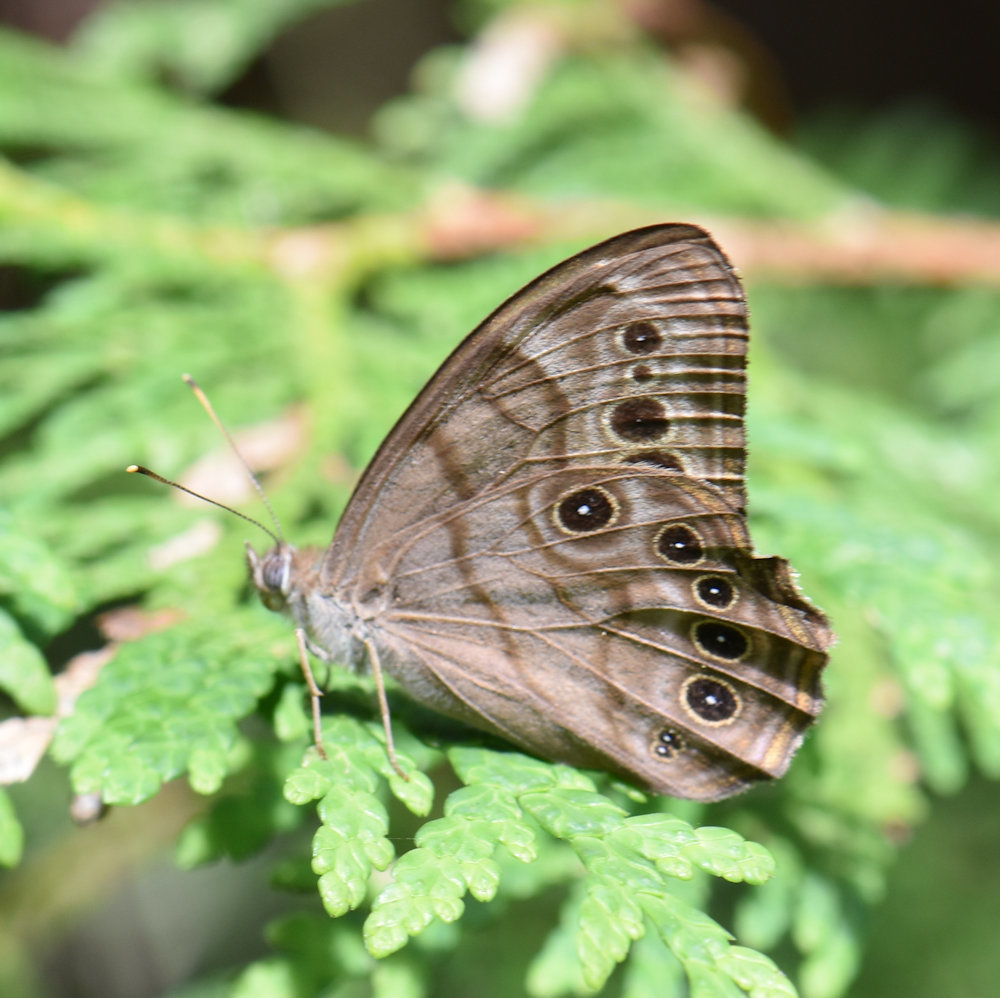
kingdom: Animalia
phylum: Arthropoda
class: Insecta
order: Lepidoptera
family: Nymphalidae
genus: Lethe
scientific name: Lethe anthedon
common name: Northern pearly-eye
